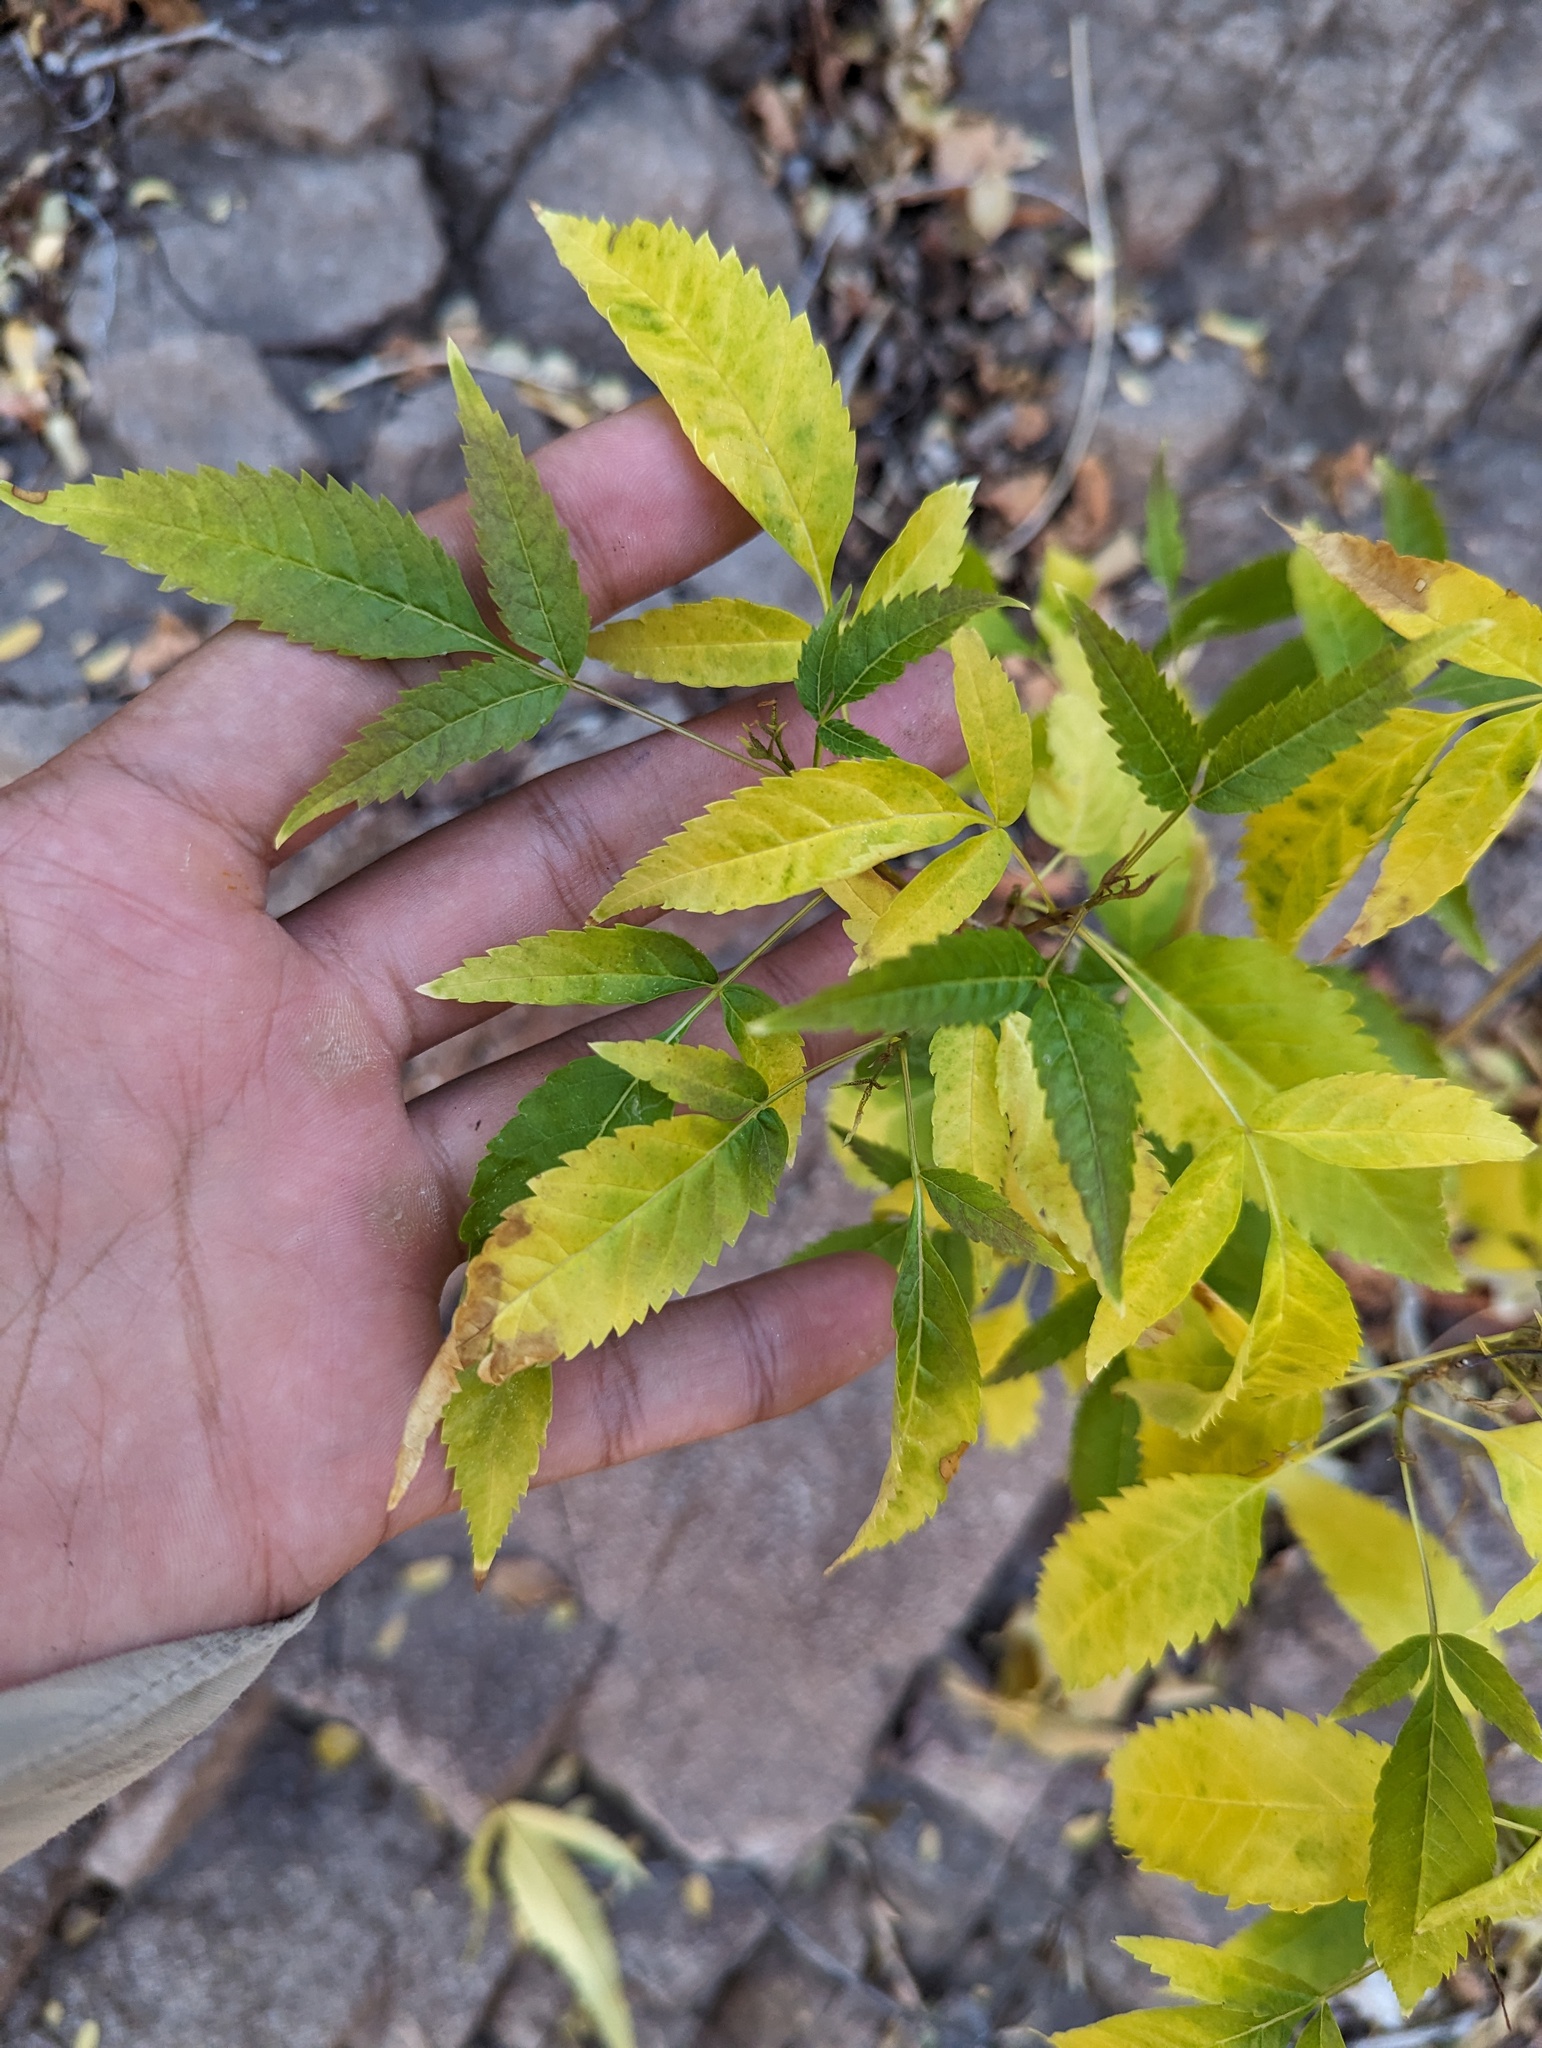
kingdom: Plantae
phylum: Tracheophyta
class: Magnoliopsida
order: Lamiales
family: Bignoniaceae
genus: Tecoma
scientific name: Tecoma stans
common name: Yellow trumpetbush
